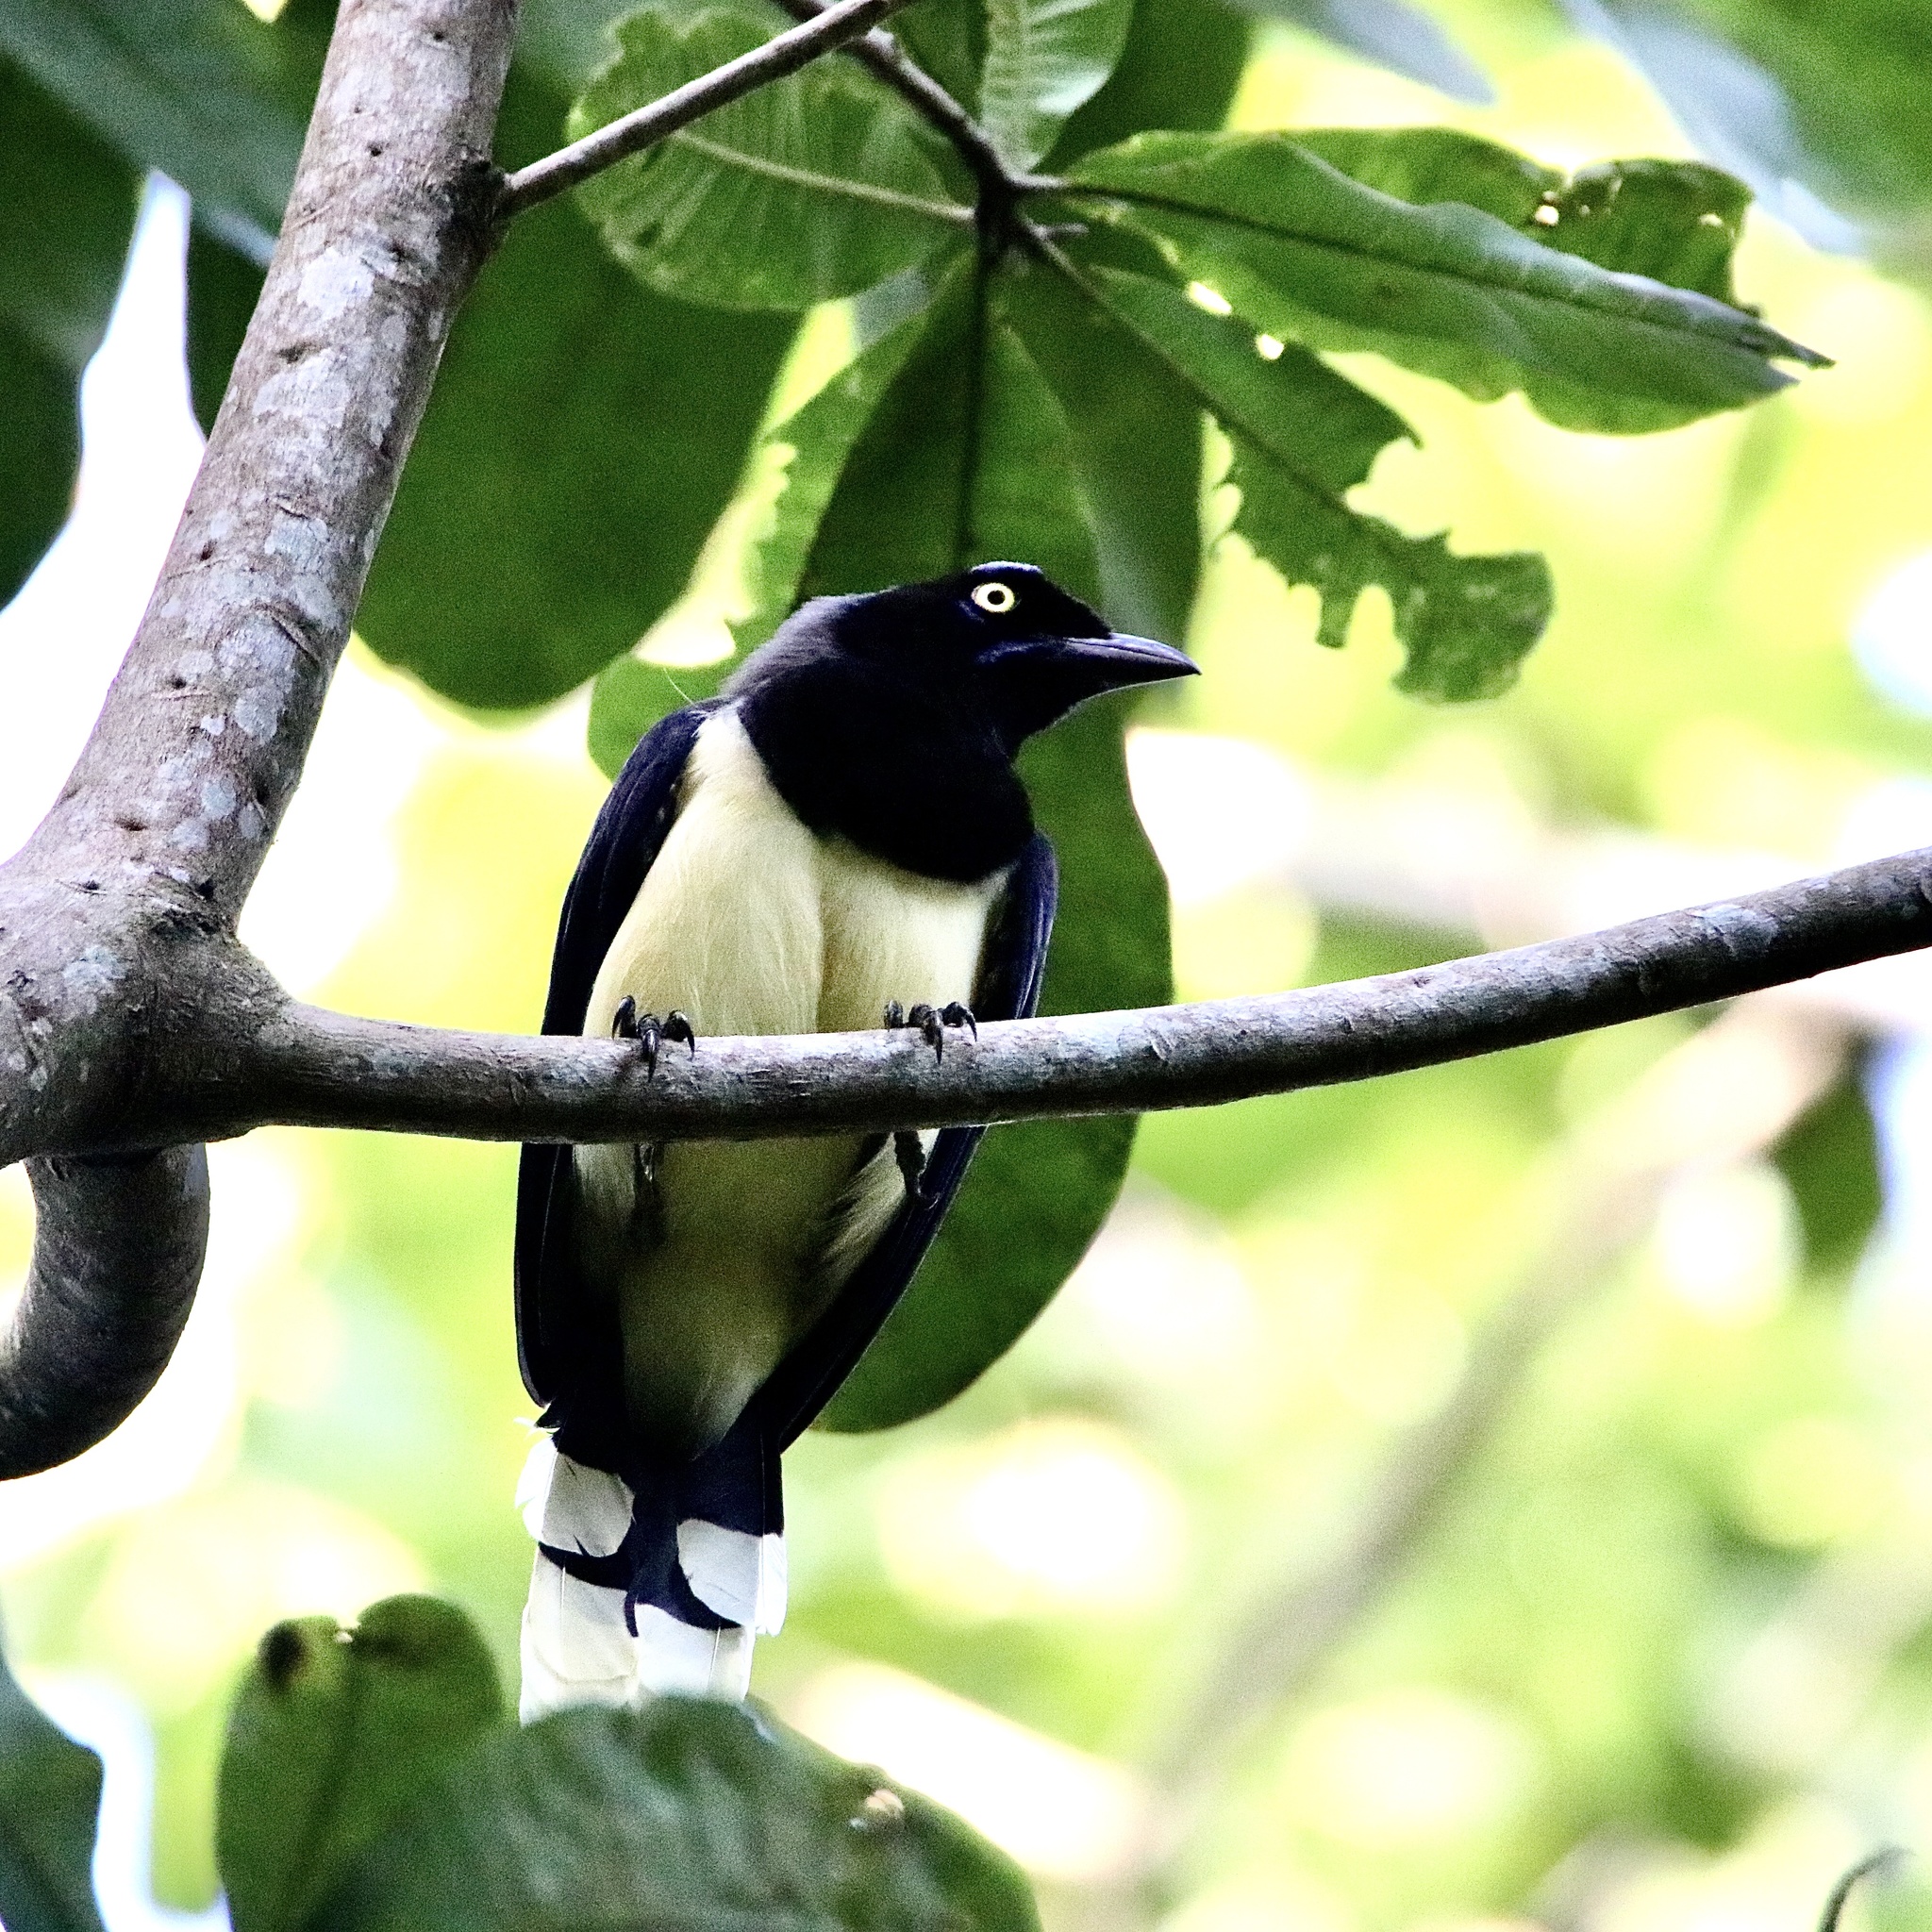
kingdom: Animalia
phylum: Chordata
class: Aves
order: Passeriformes
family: Corvidae
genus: Cyanocorax
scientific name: Cyanocorax affinis
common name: Black-chested jay
